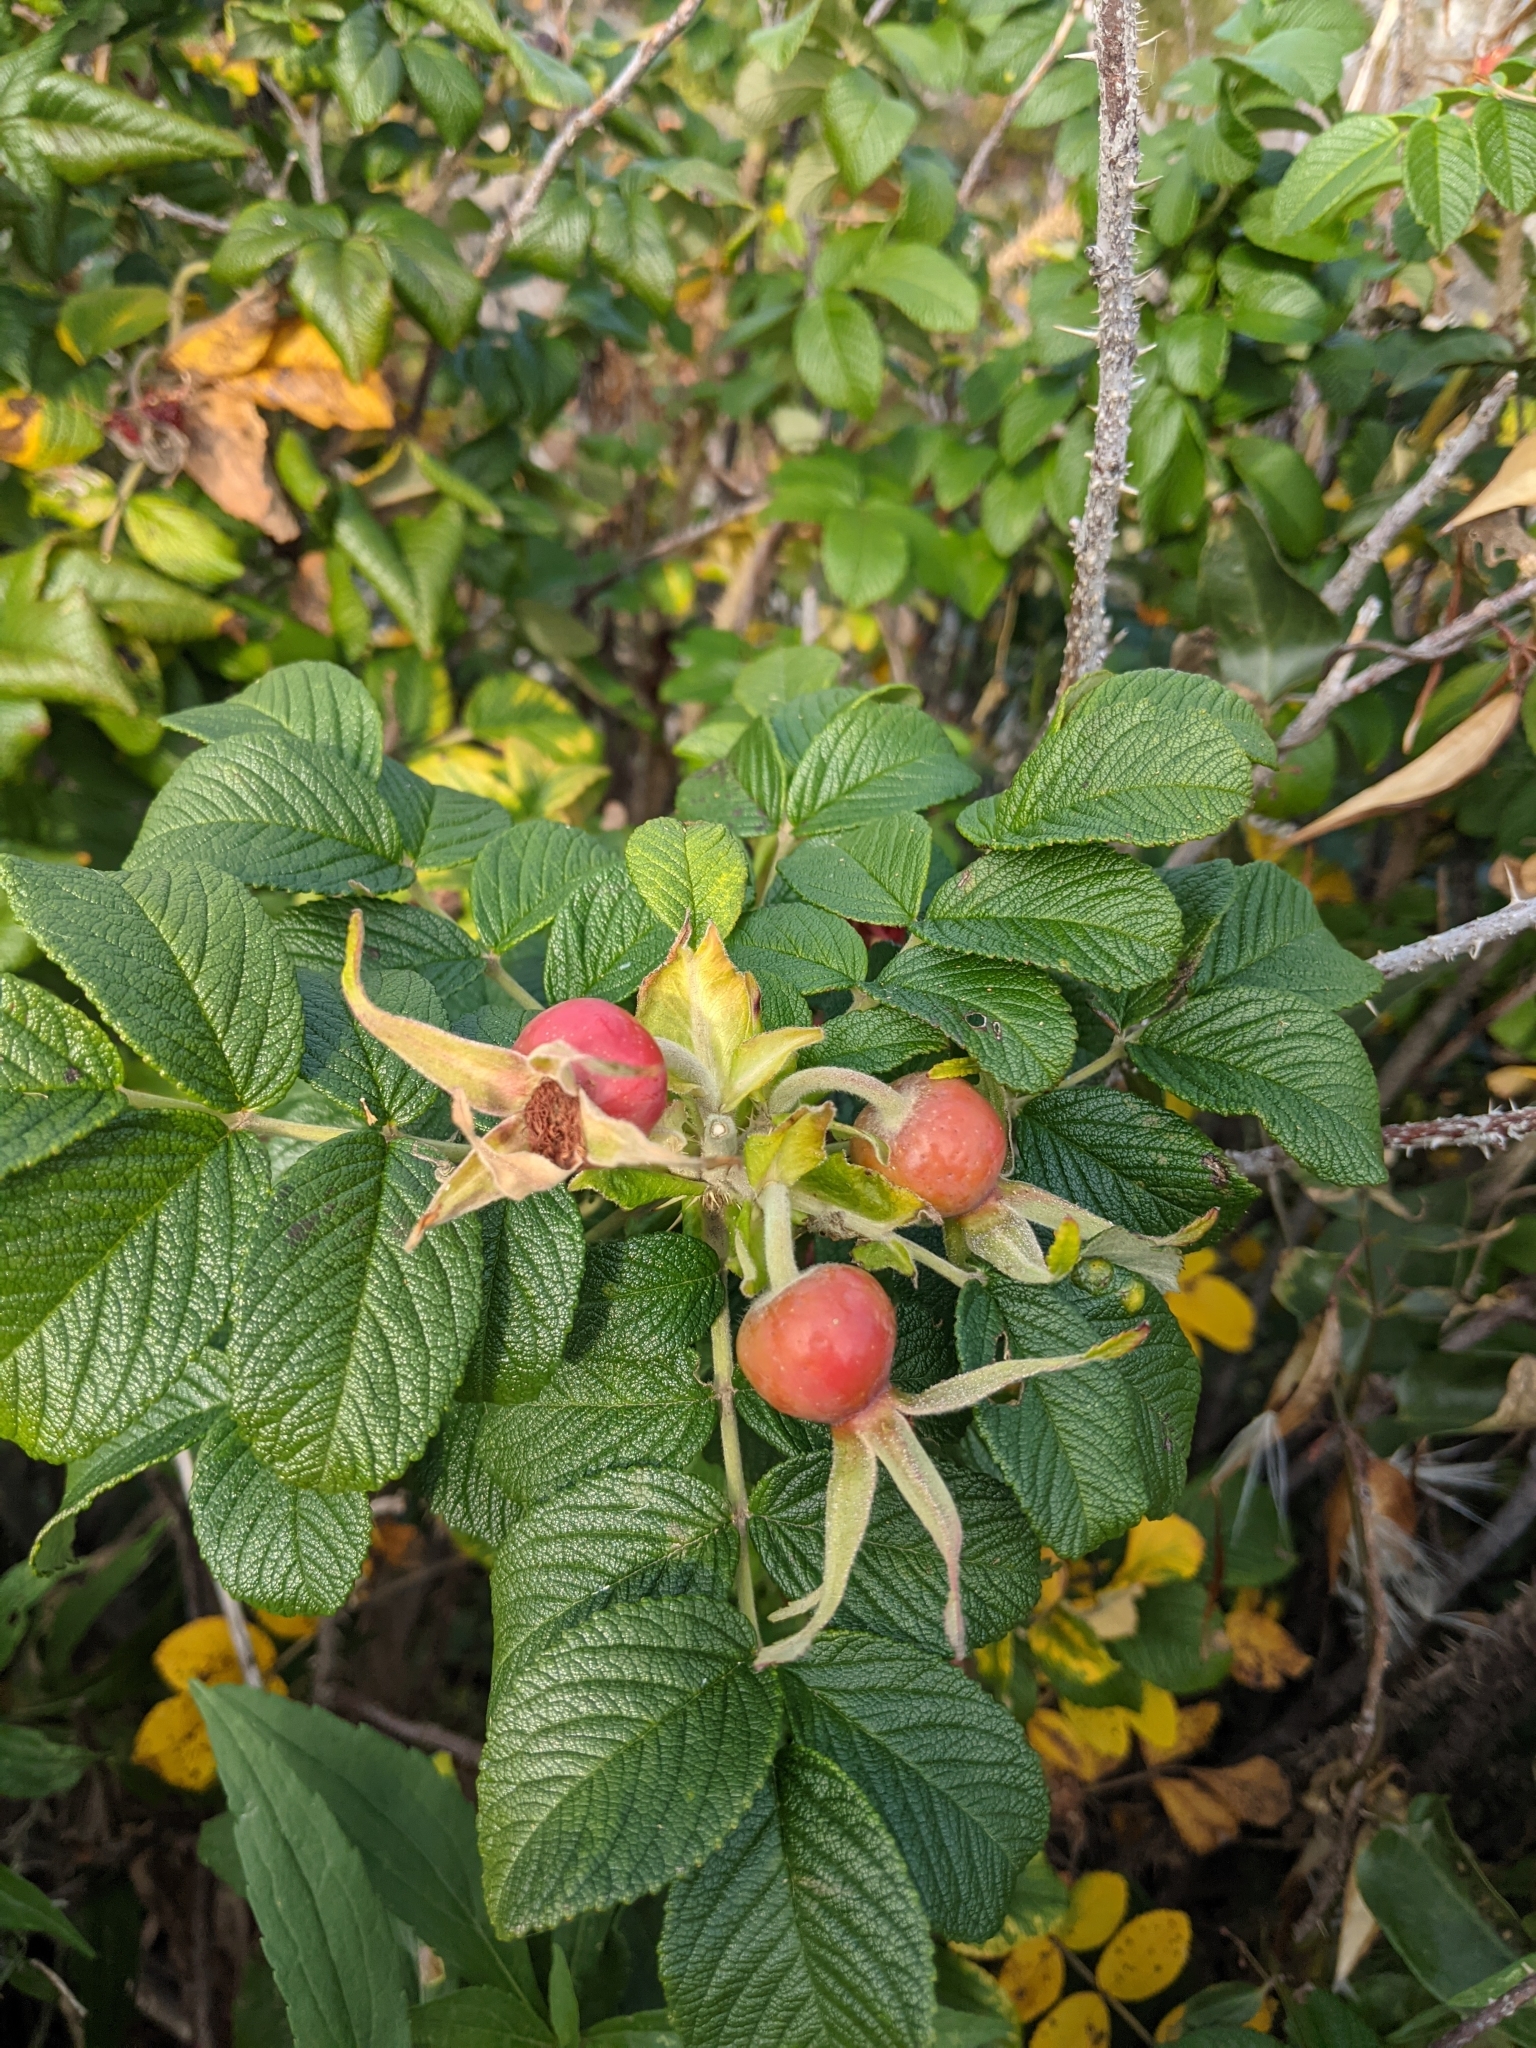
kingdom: Plantae
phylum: Tracheophyta
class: Magnoliopsida
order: Rosales
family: Rosaceae
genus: Rosa
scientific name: Rosa rugosa
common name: Japanese rose
